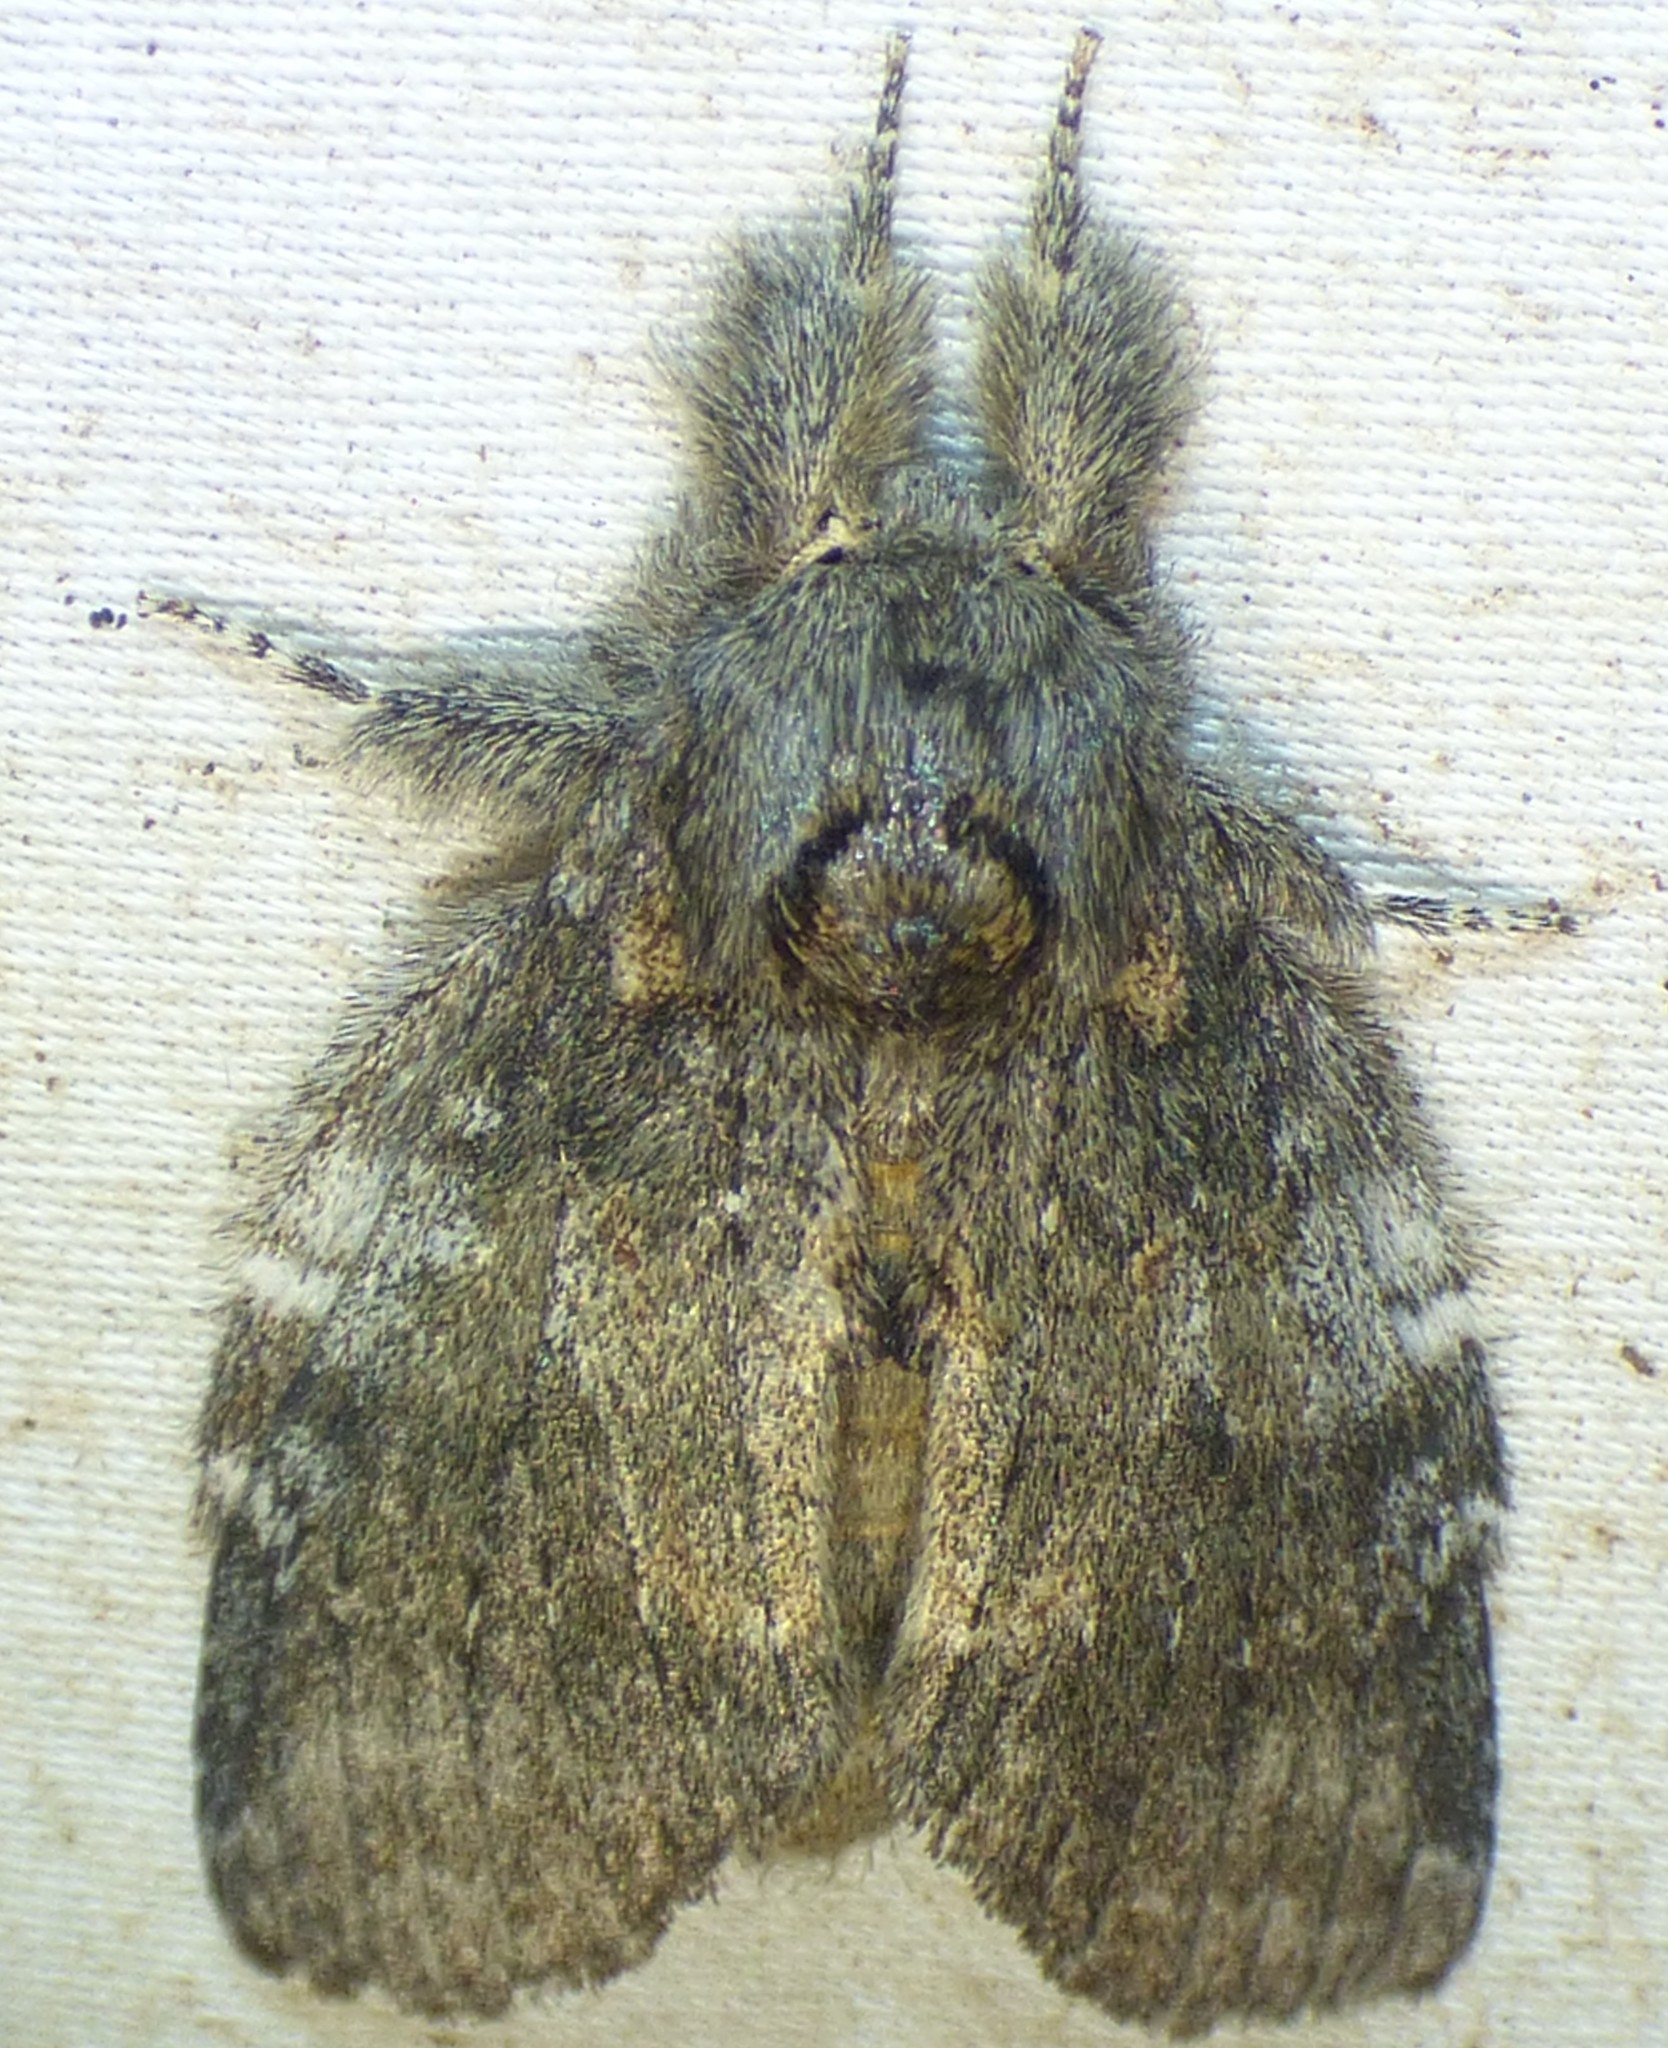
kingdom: Animalia
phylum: Arthropoda
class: Insecta
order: Lepidoptera
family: Notodontidae
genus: Peridea
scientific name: Peridea angulosa
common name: Angulose prominent
